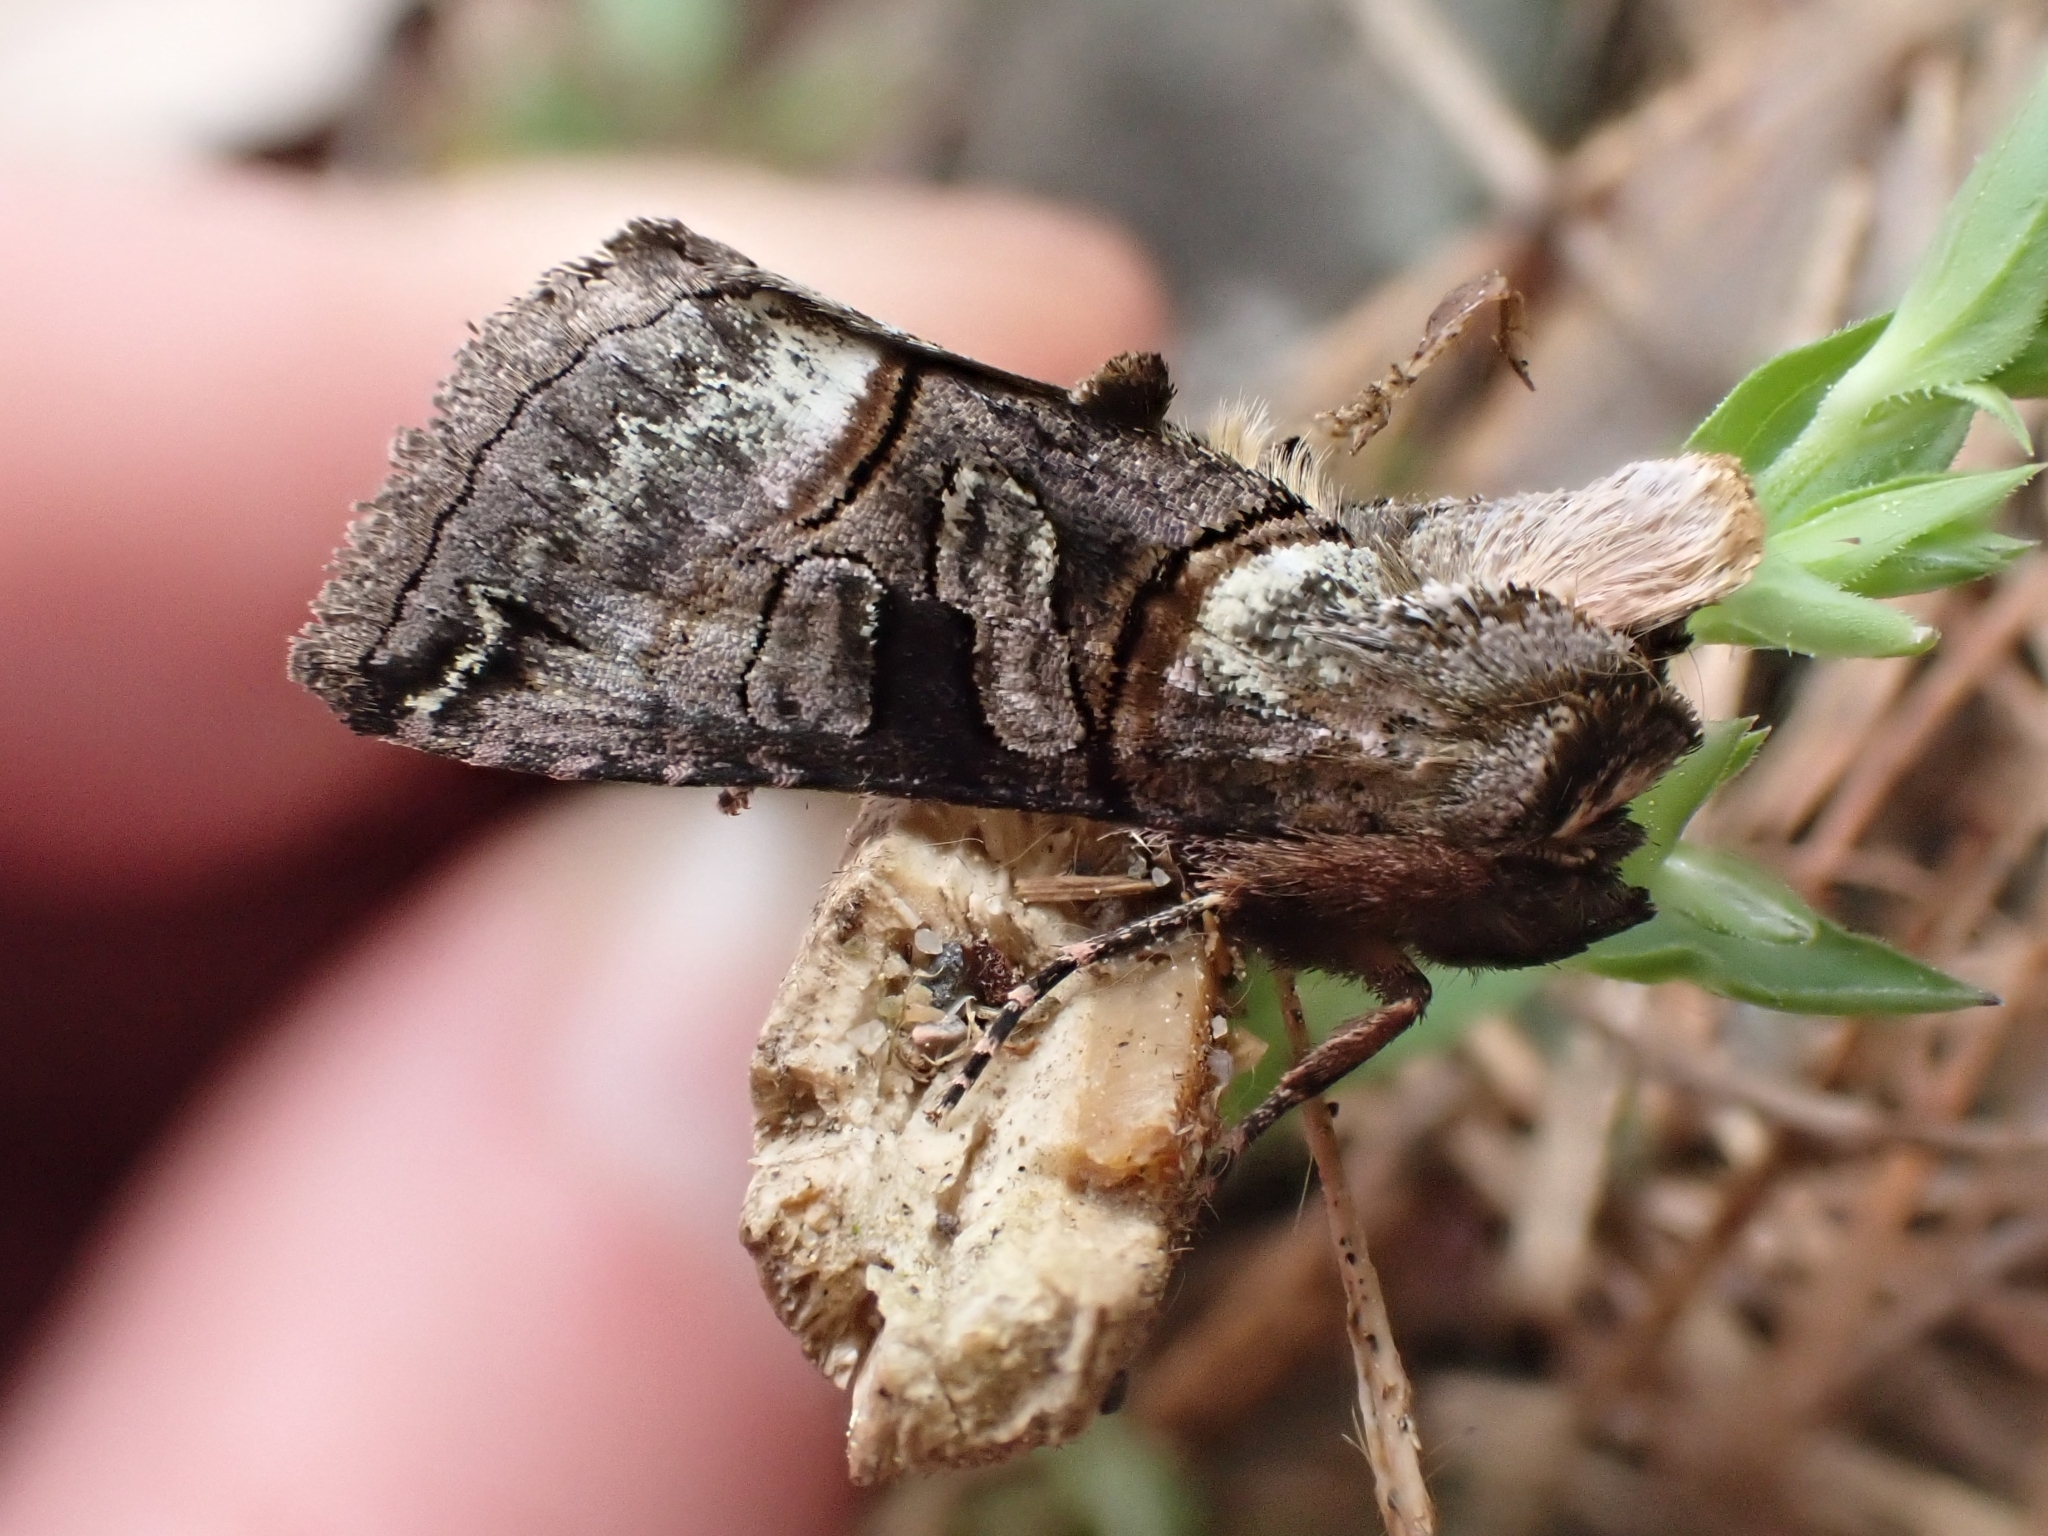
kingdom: Animalia
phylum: Arthropoda
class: Insecta
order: Lepidoptera
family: Noctuidae
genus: Abrostola
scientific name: Abrostola tripartita
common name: Spectacle
